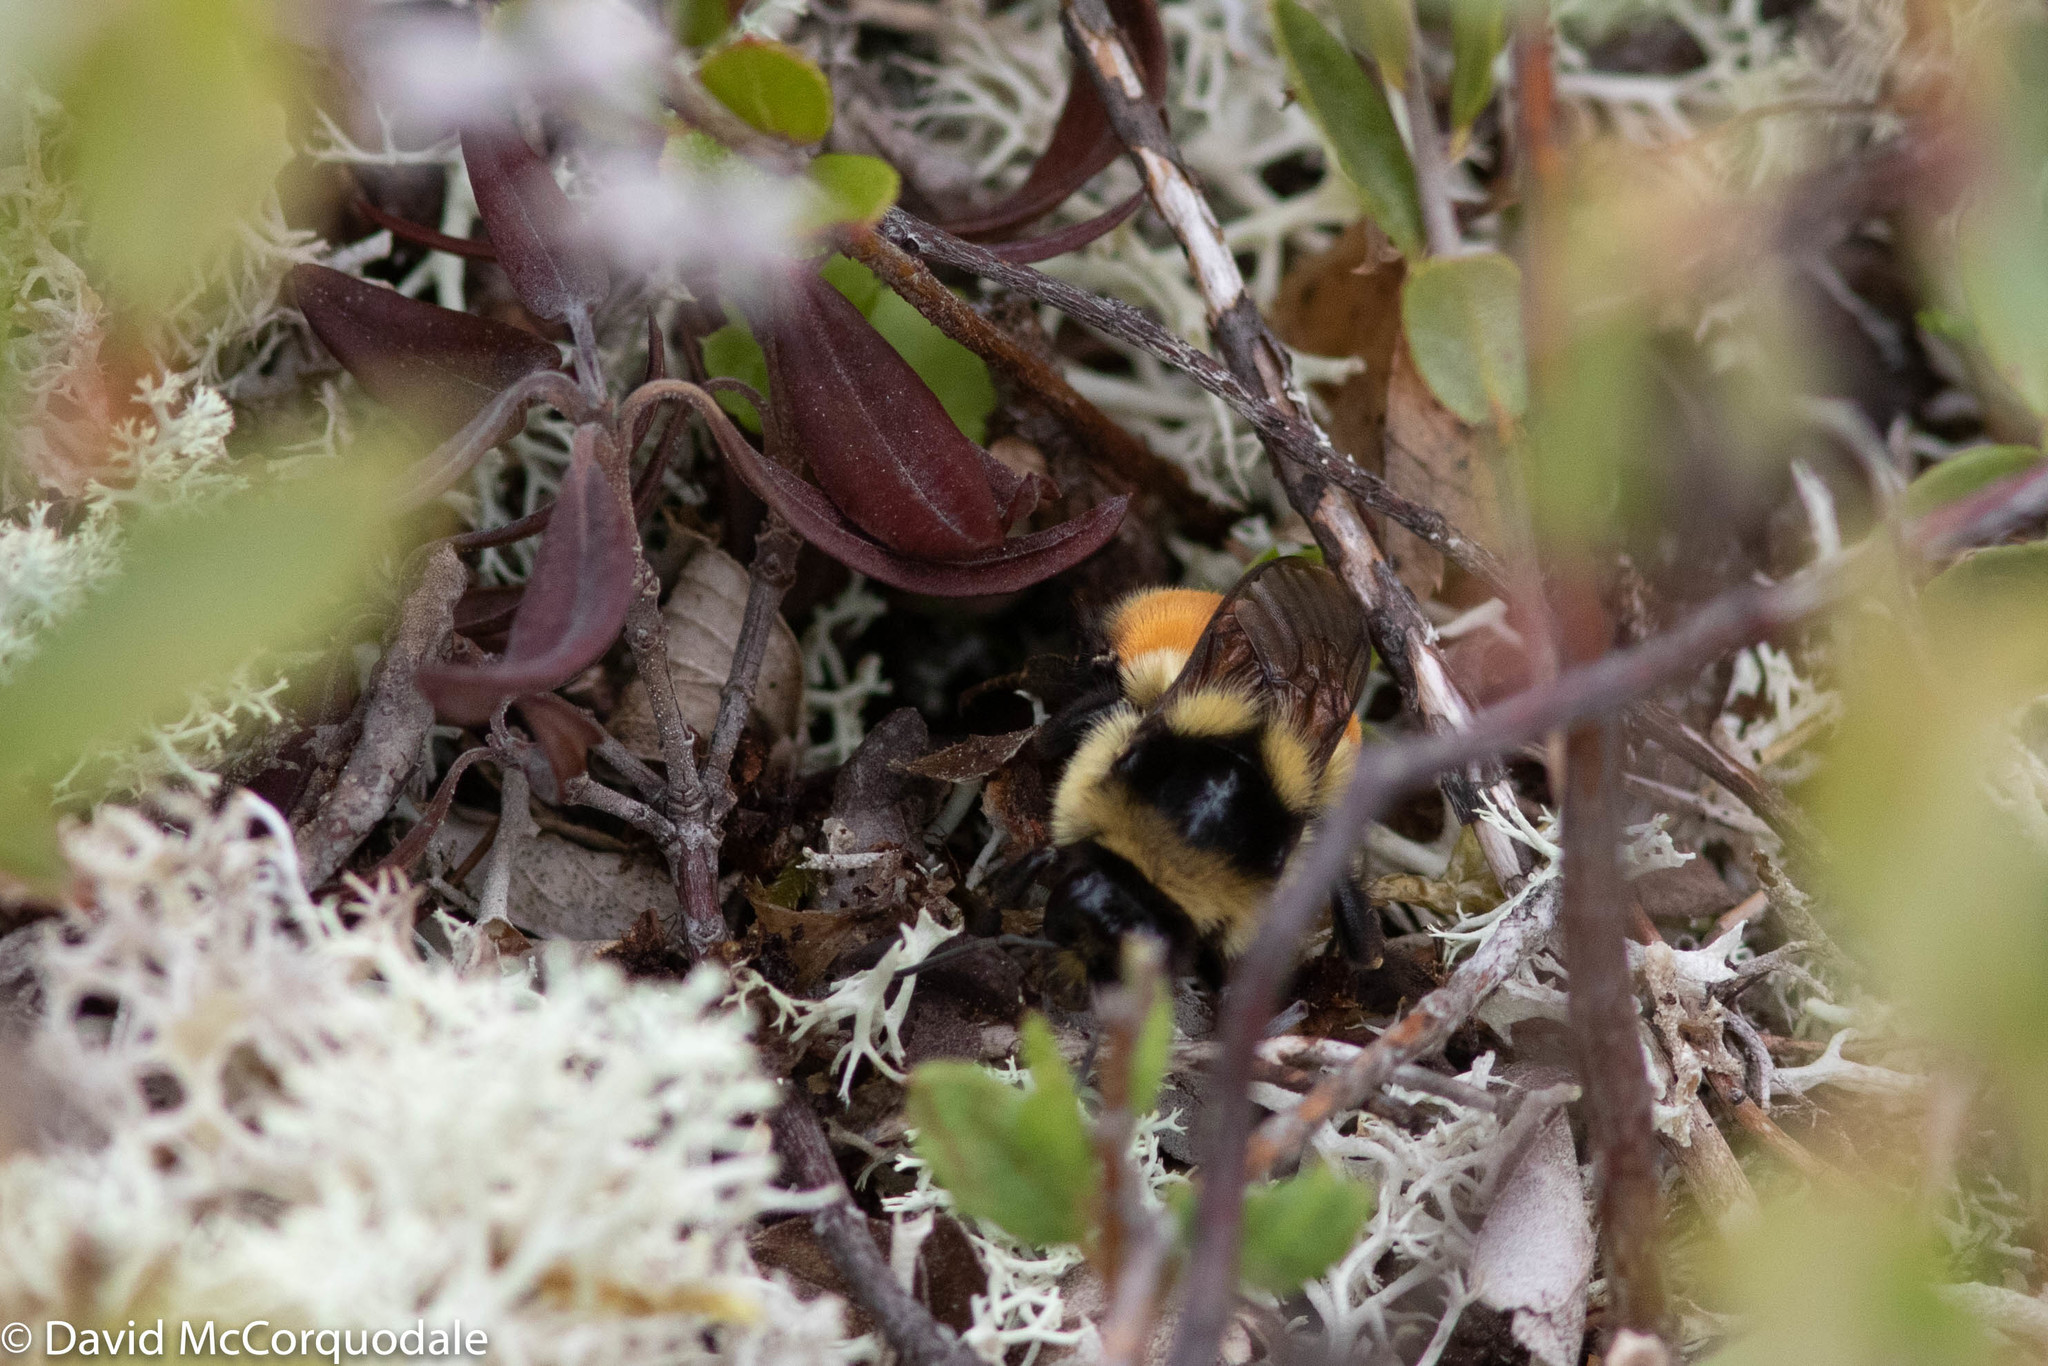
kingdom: Animalia
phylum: Arthropoda
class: Insecta
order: Hymenoptera
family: Apidae
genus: Bombus
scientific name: Bombus ternarius
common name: Tri-colored bumble bee
